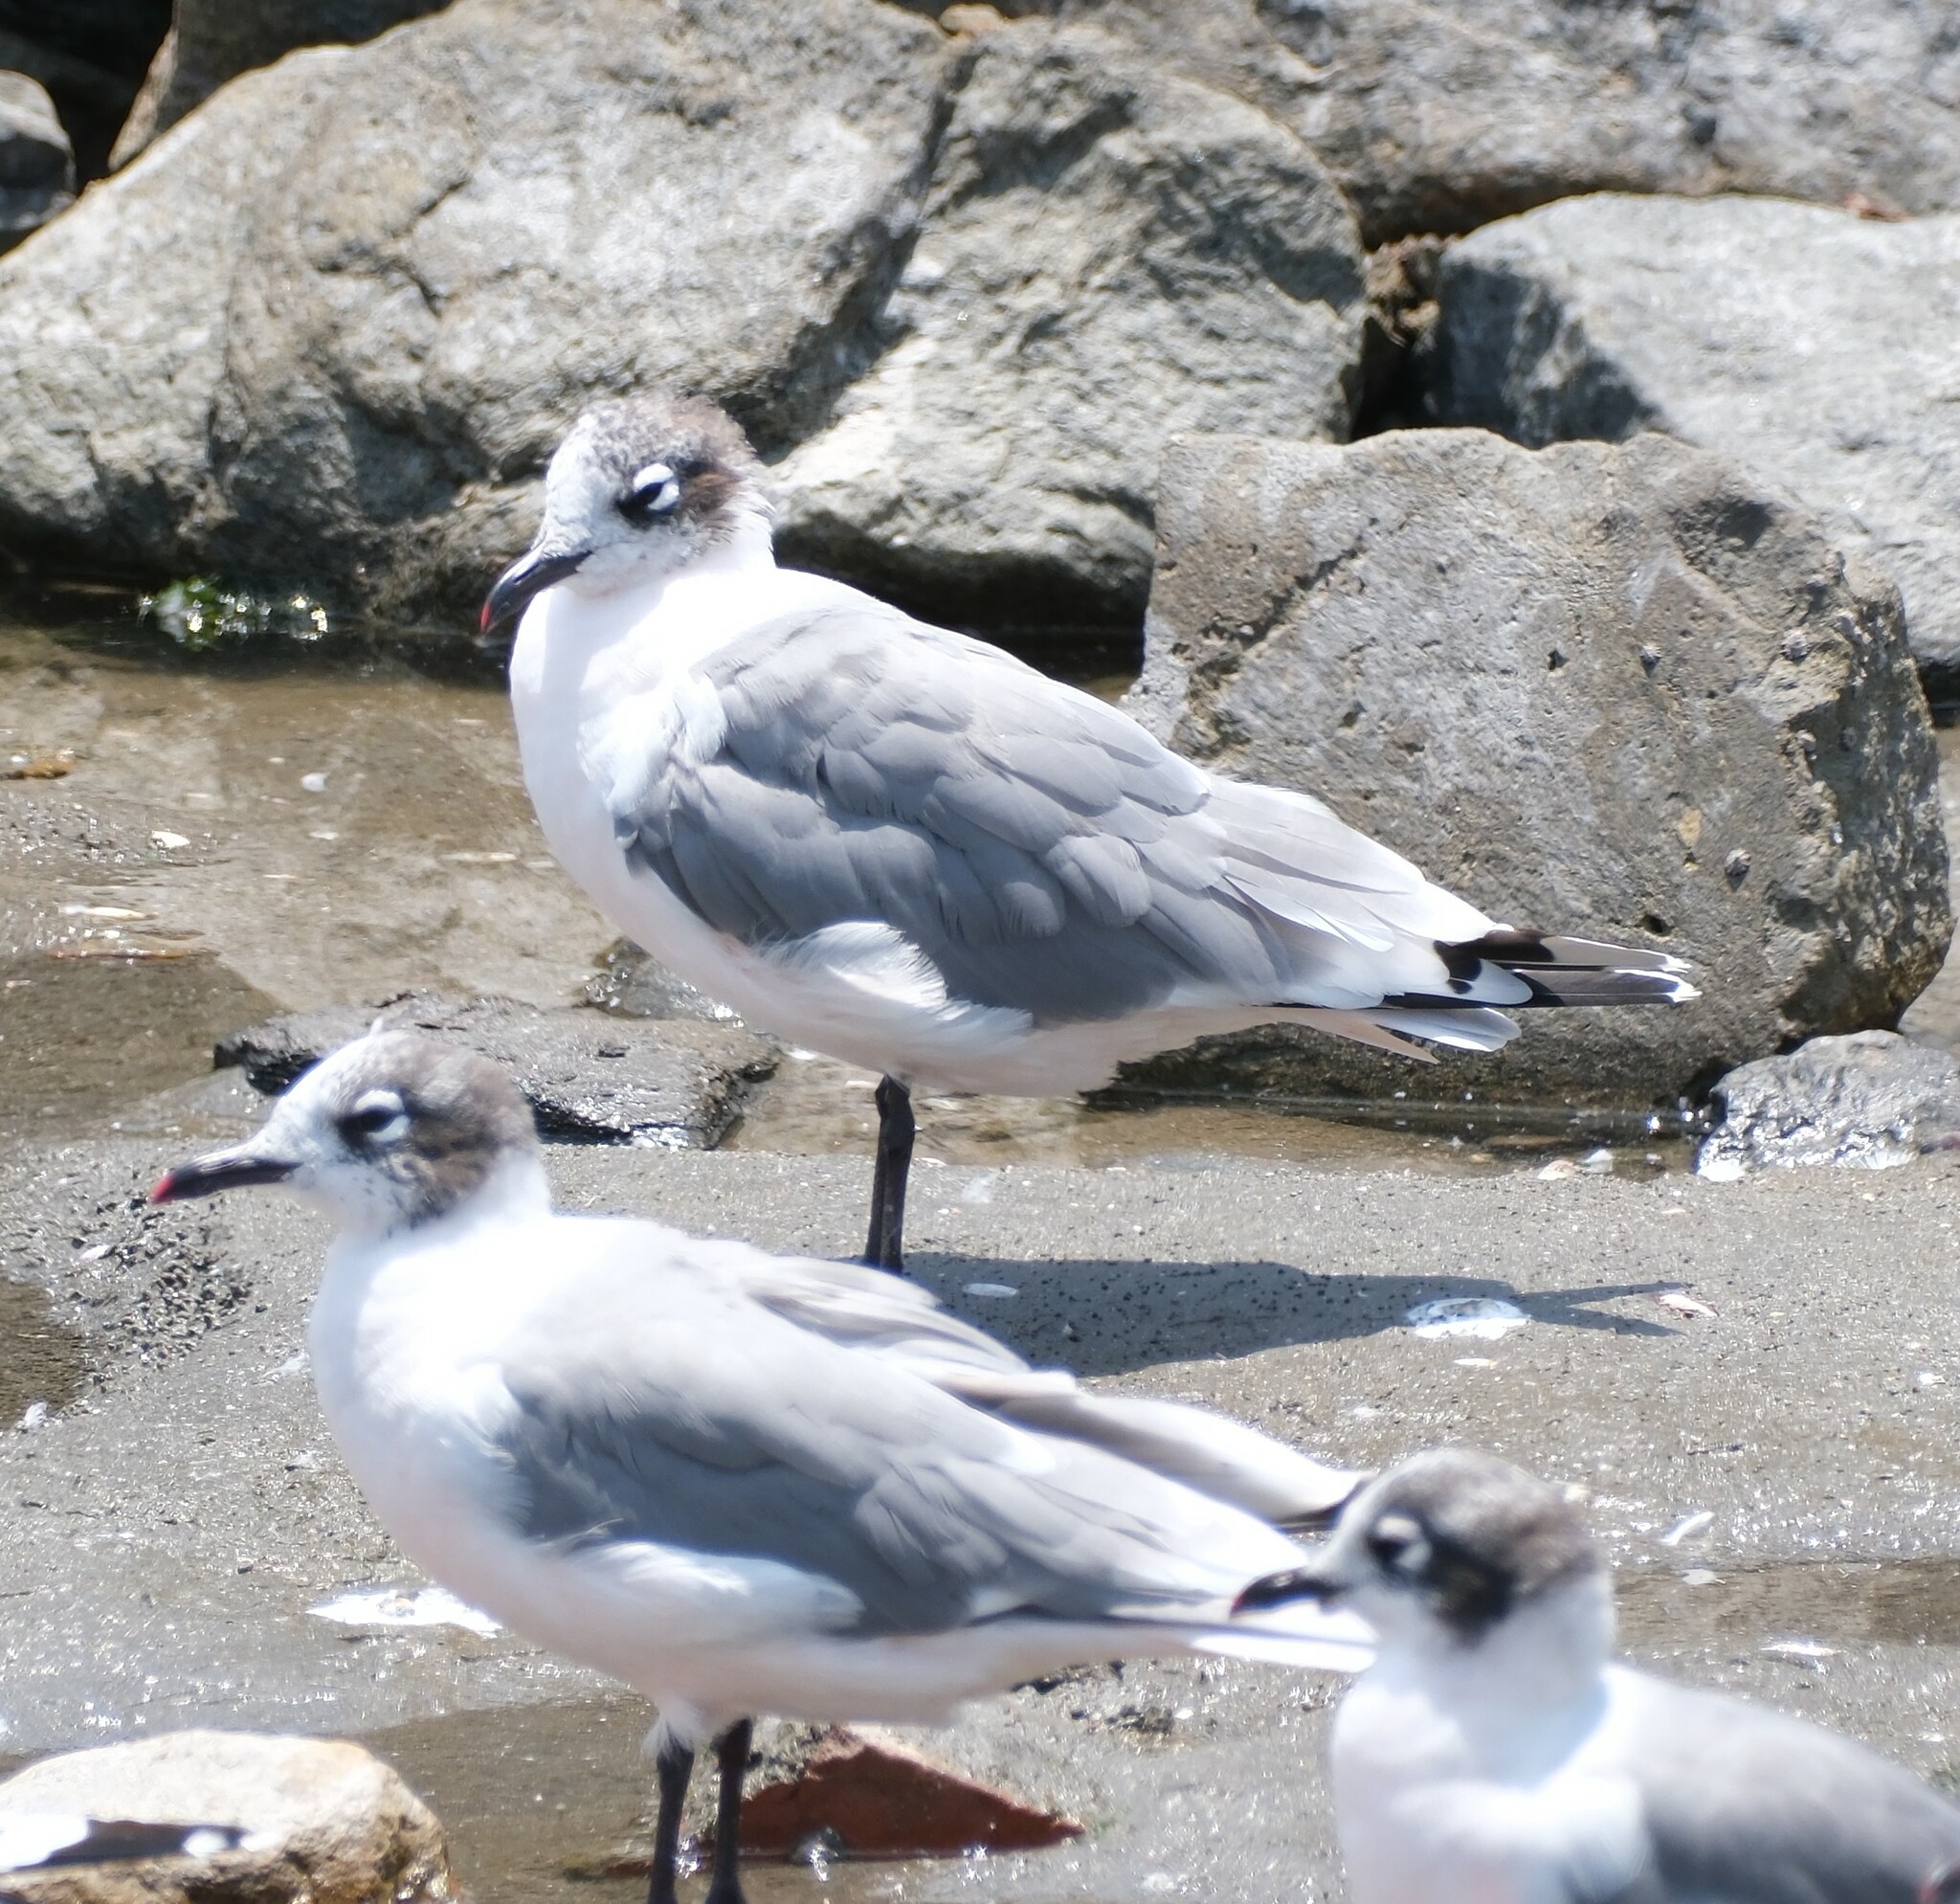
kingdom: Animalia
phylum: Chordata
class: Aves
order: Charadriiformes
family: Laridae
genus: Leucophaeus
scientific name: Leucophaeus pipixcan
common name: Franklin's gull
